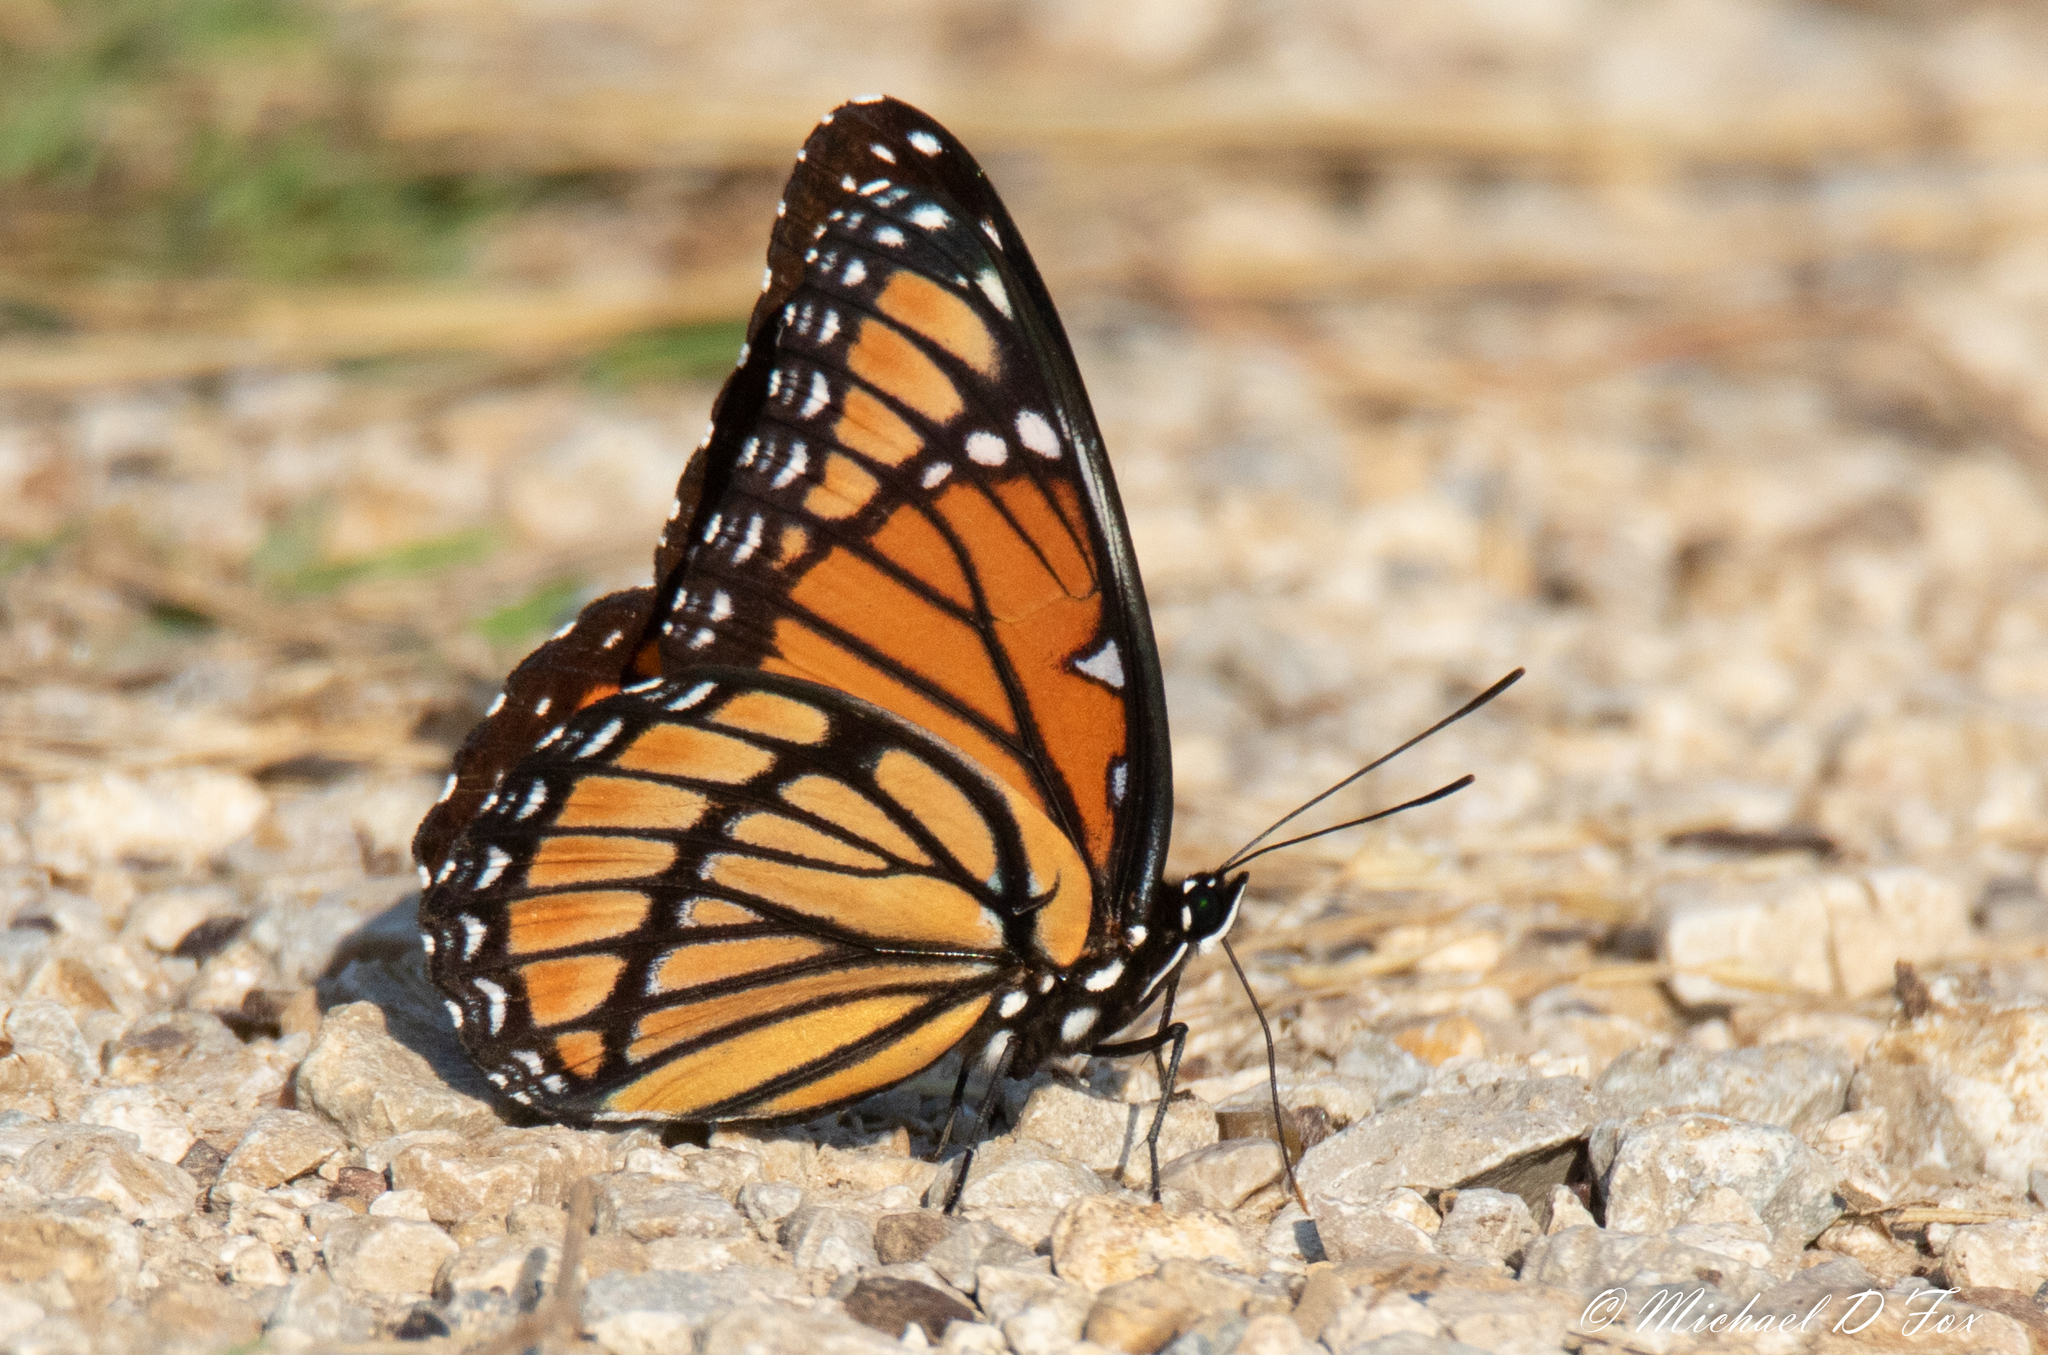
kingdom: Animalia
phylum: Arthropoda
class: Insecta
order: Lepidoptera
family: Nymphalidae
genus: Limenitis
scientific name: Limenitis archippus
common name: Viceroy
